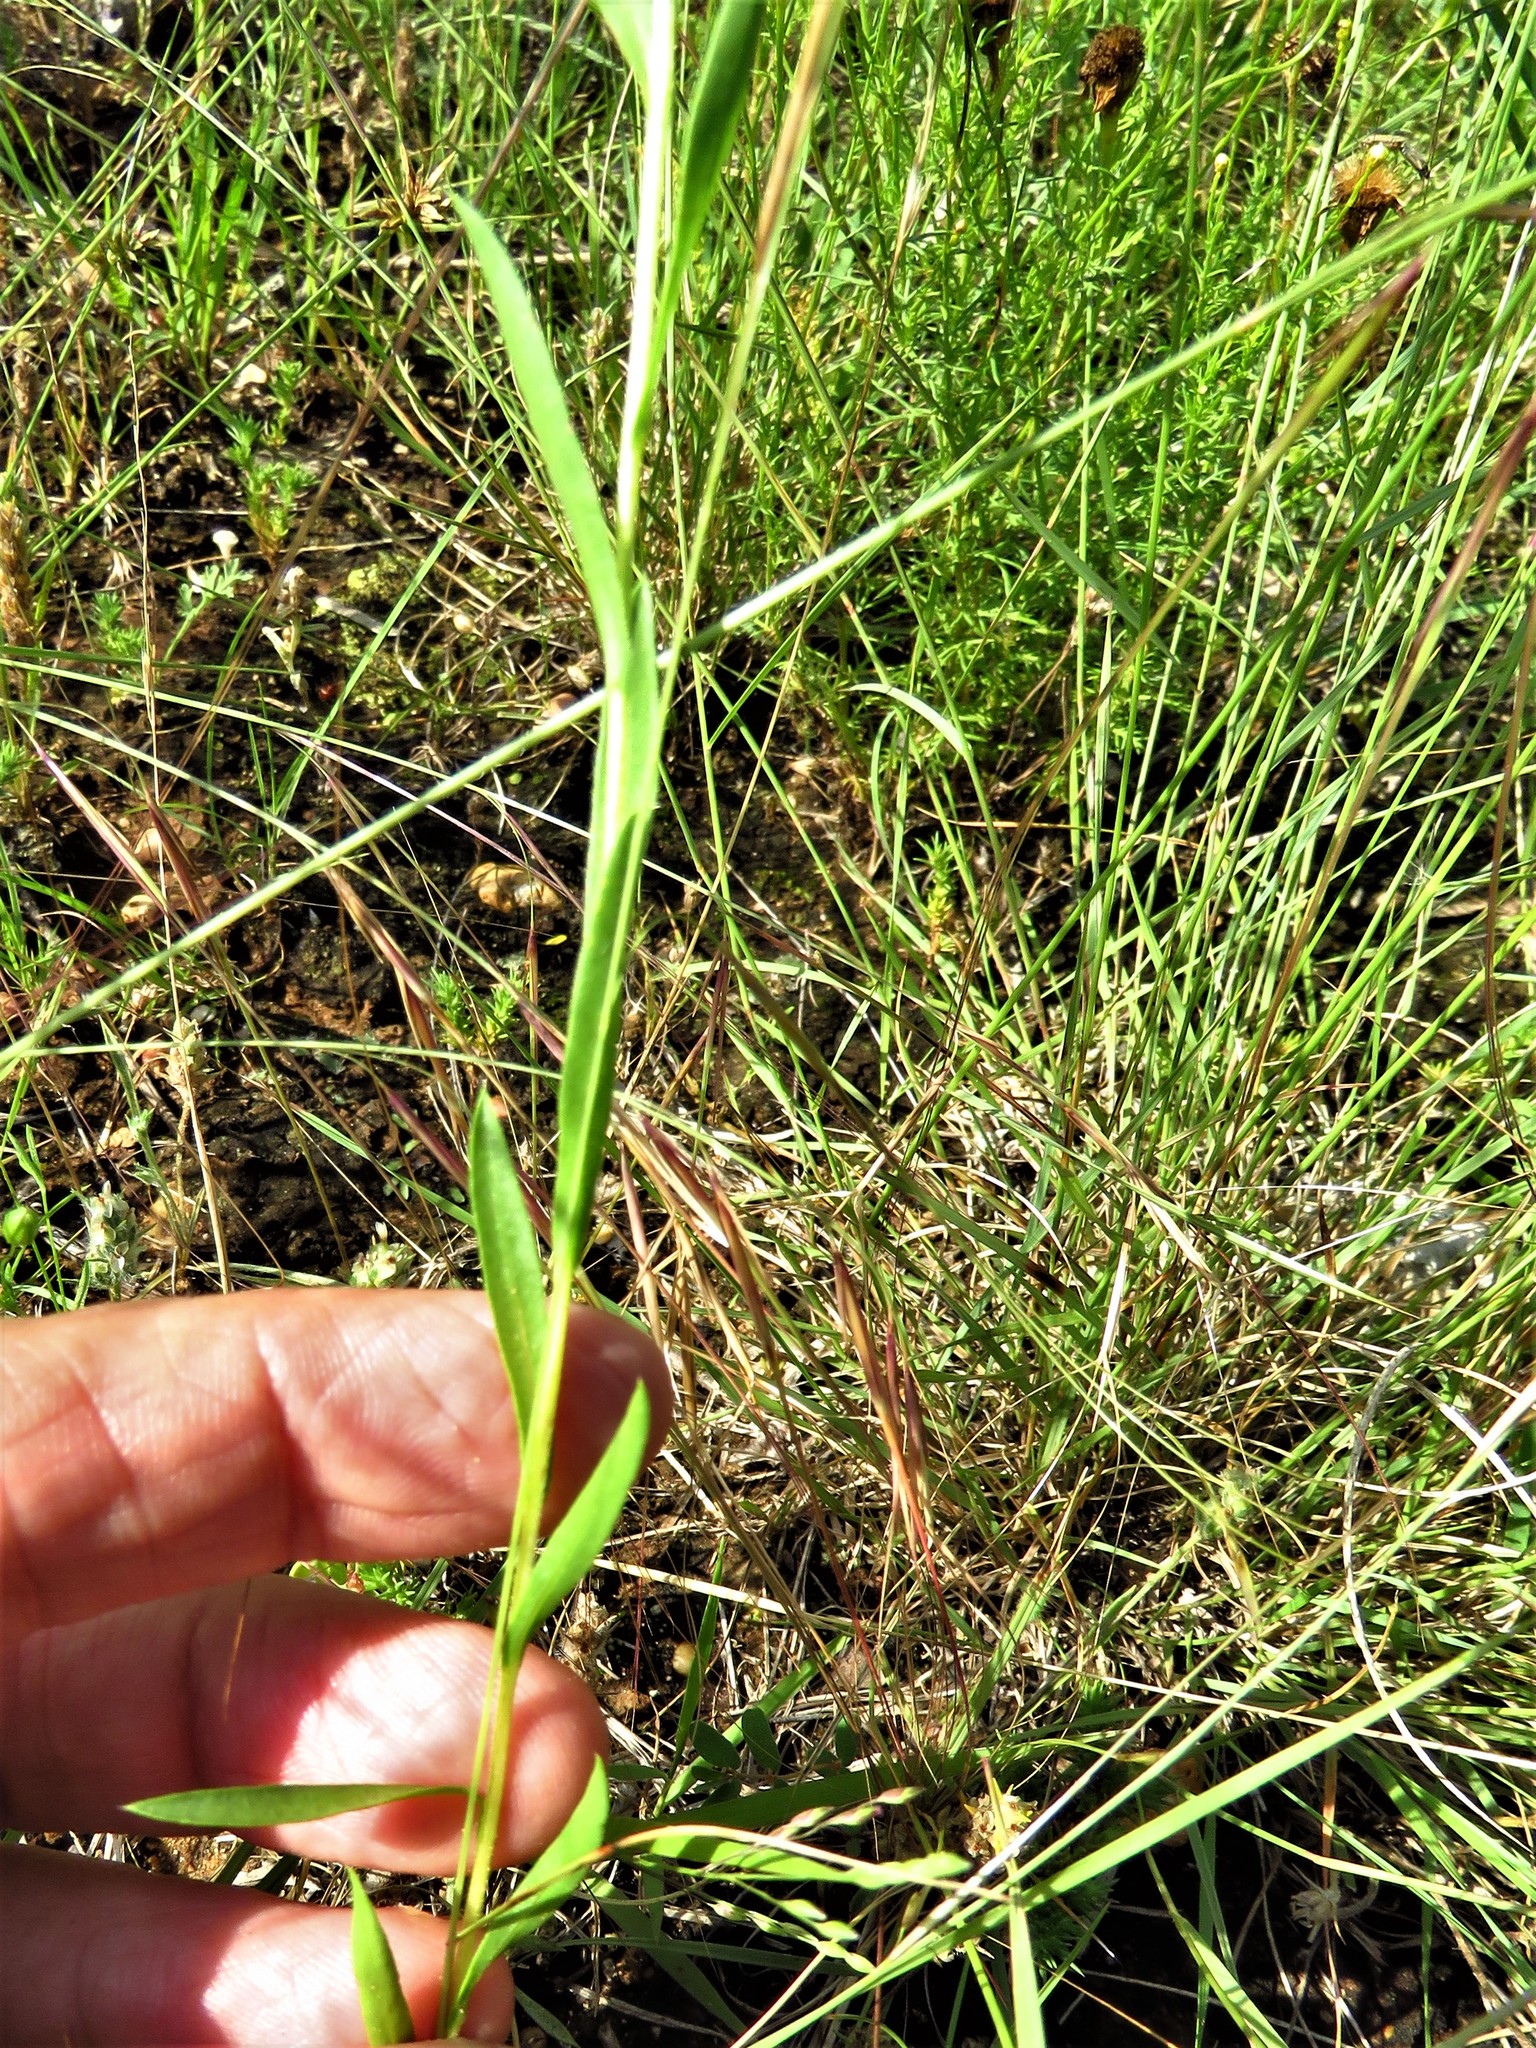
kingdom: Plantae
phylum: Tracheophyta
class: Magnoliopsida
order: Asterales
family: Asteraceae
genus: Xanthisma
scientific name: Xanthisma texanum
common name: Texas sleepy daisy
